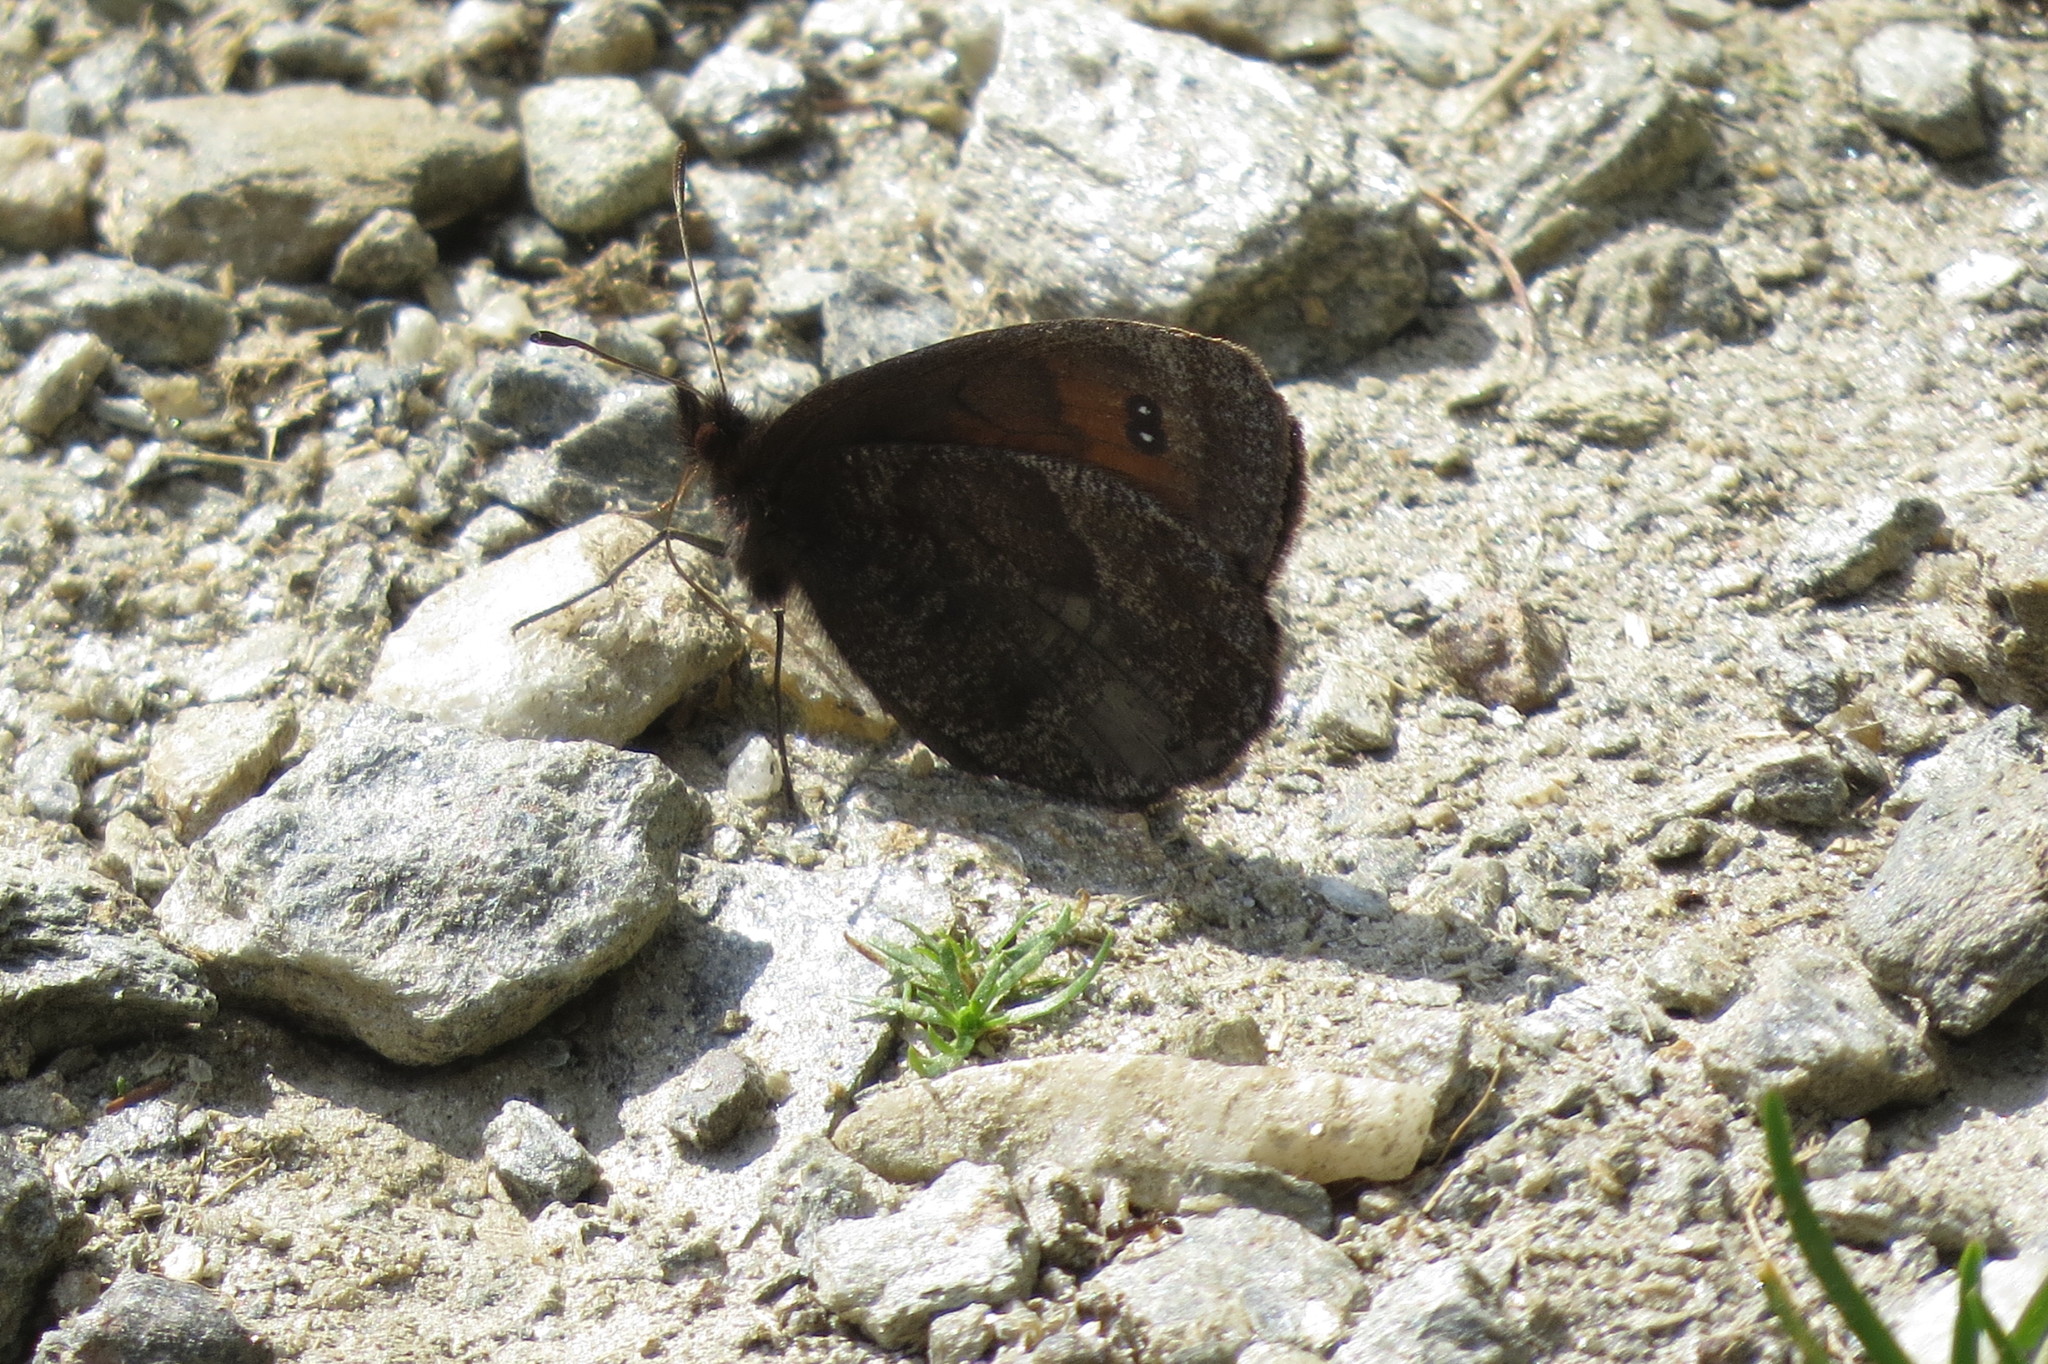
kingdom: Animalia
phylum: Arthropoda
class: Insecta
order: Lepidoptera
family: Nymphalidae
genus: Erebia
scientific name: Erebia montanus
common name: Marbled ringlet
